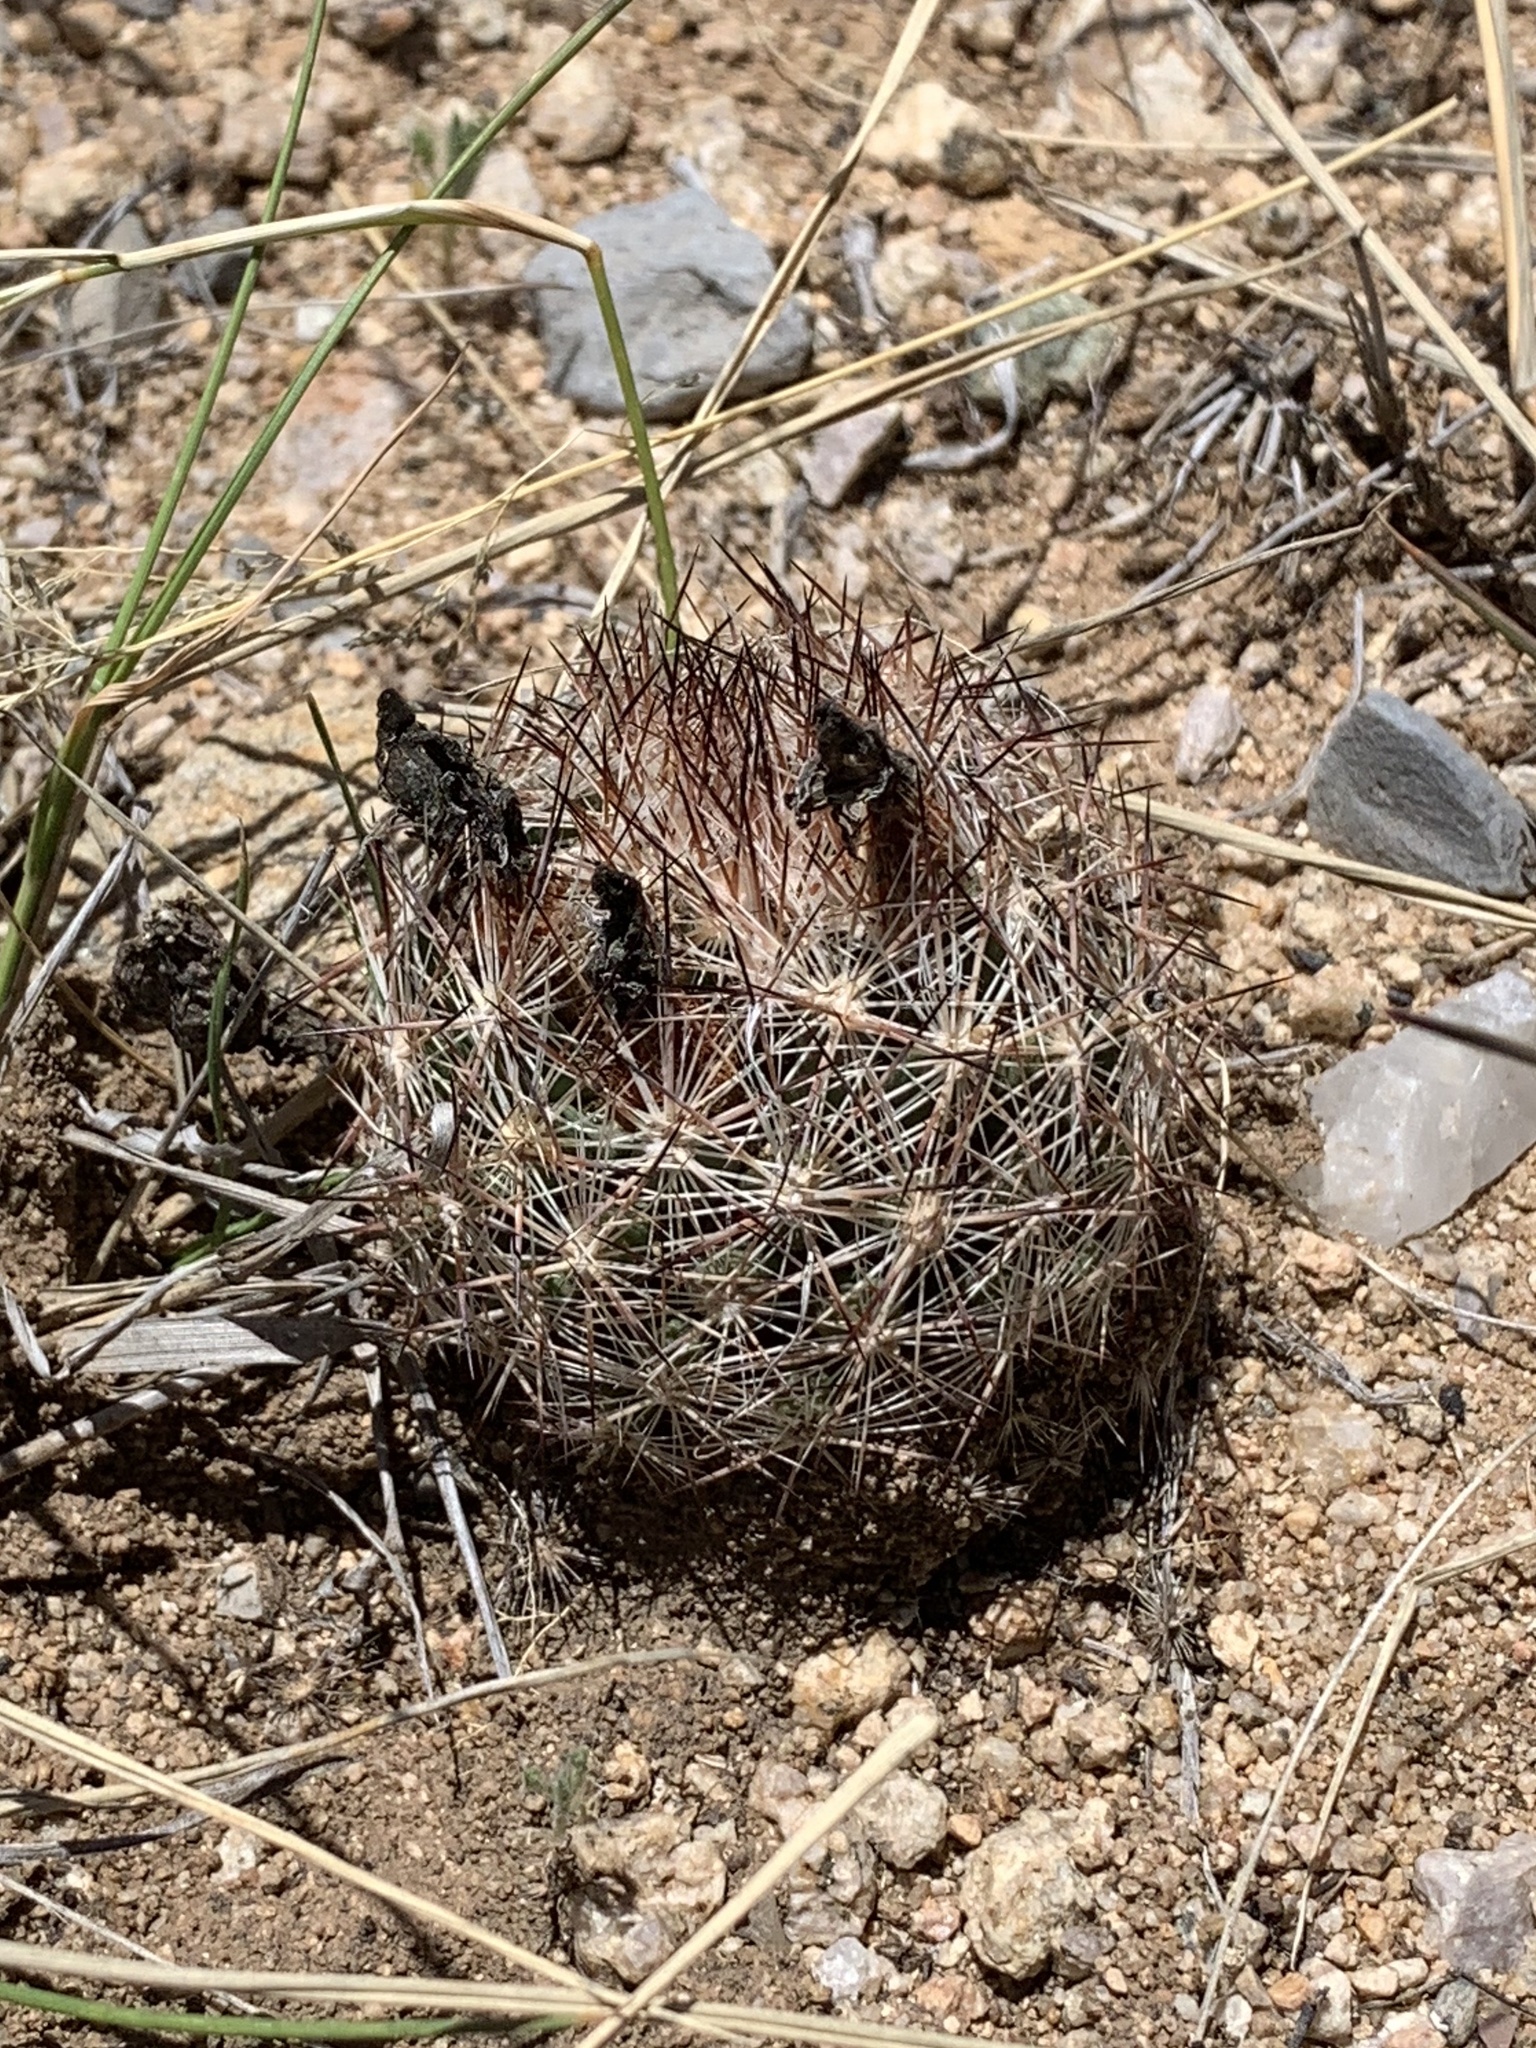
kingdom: Plantae
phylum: Tracheophyta
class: Magnoliopsida
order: Caryophyllales
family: Cactaceae
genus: Pelecyphora
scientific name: Pelecyphora vivipara
